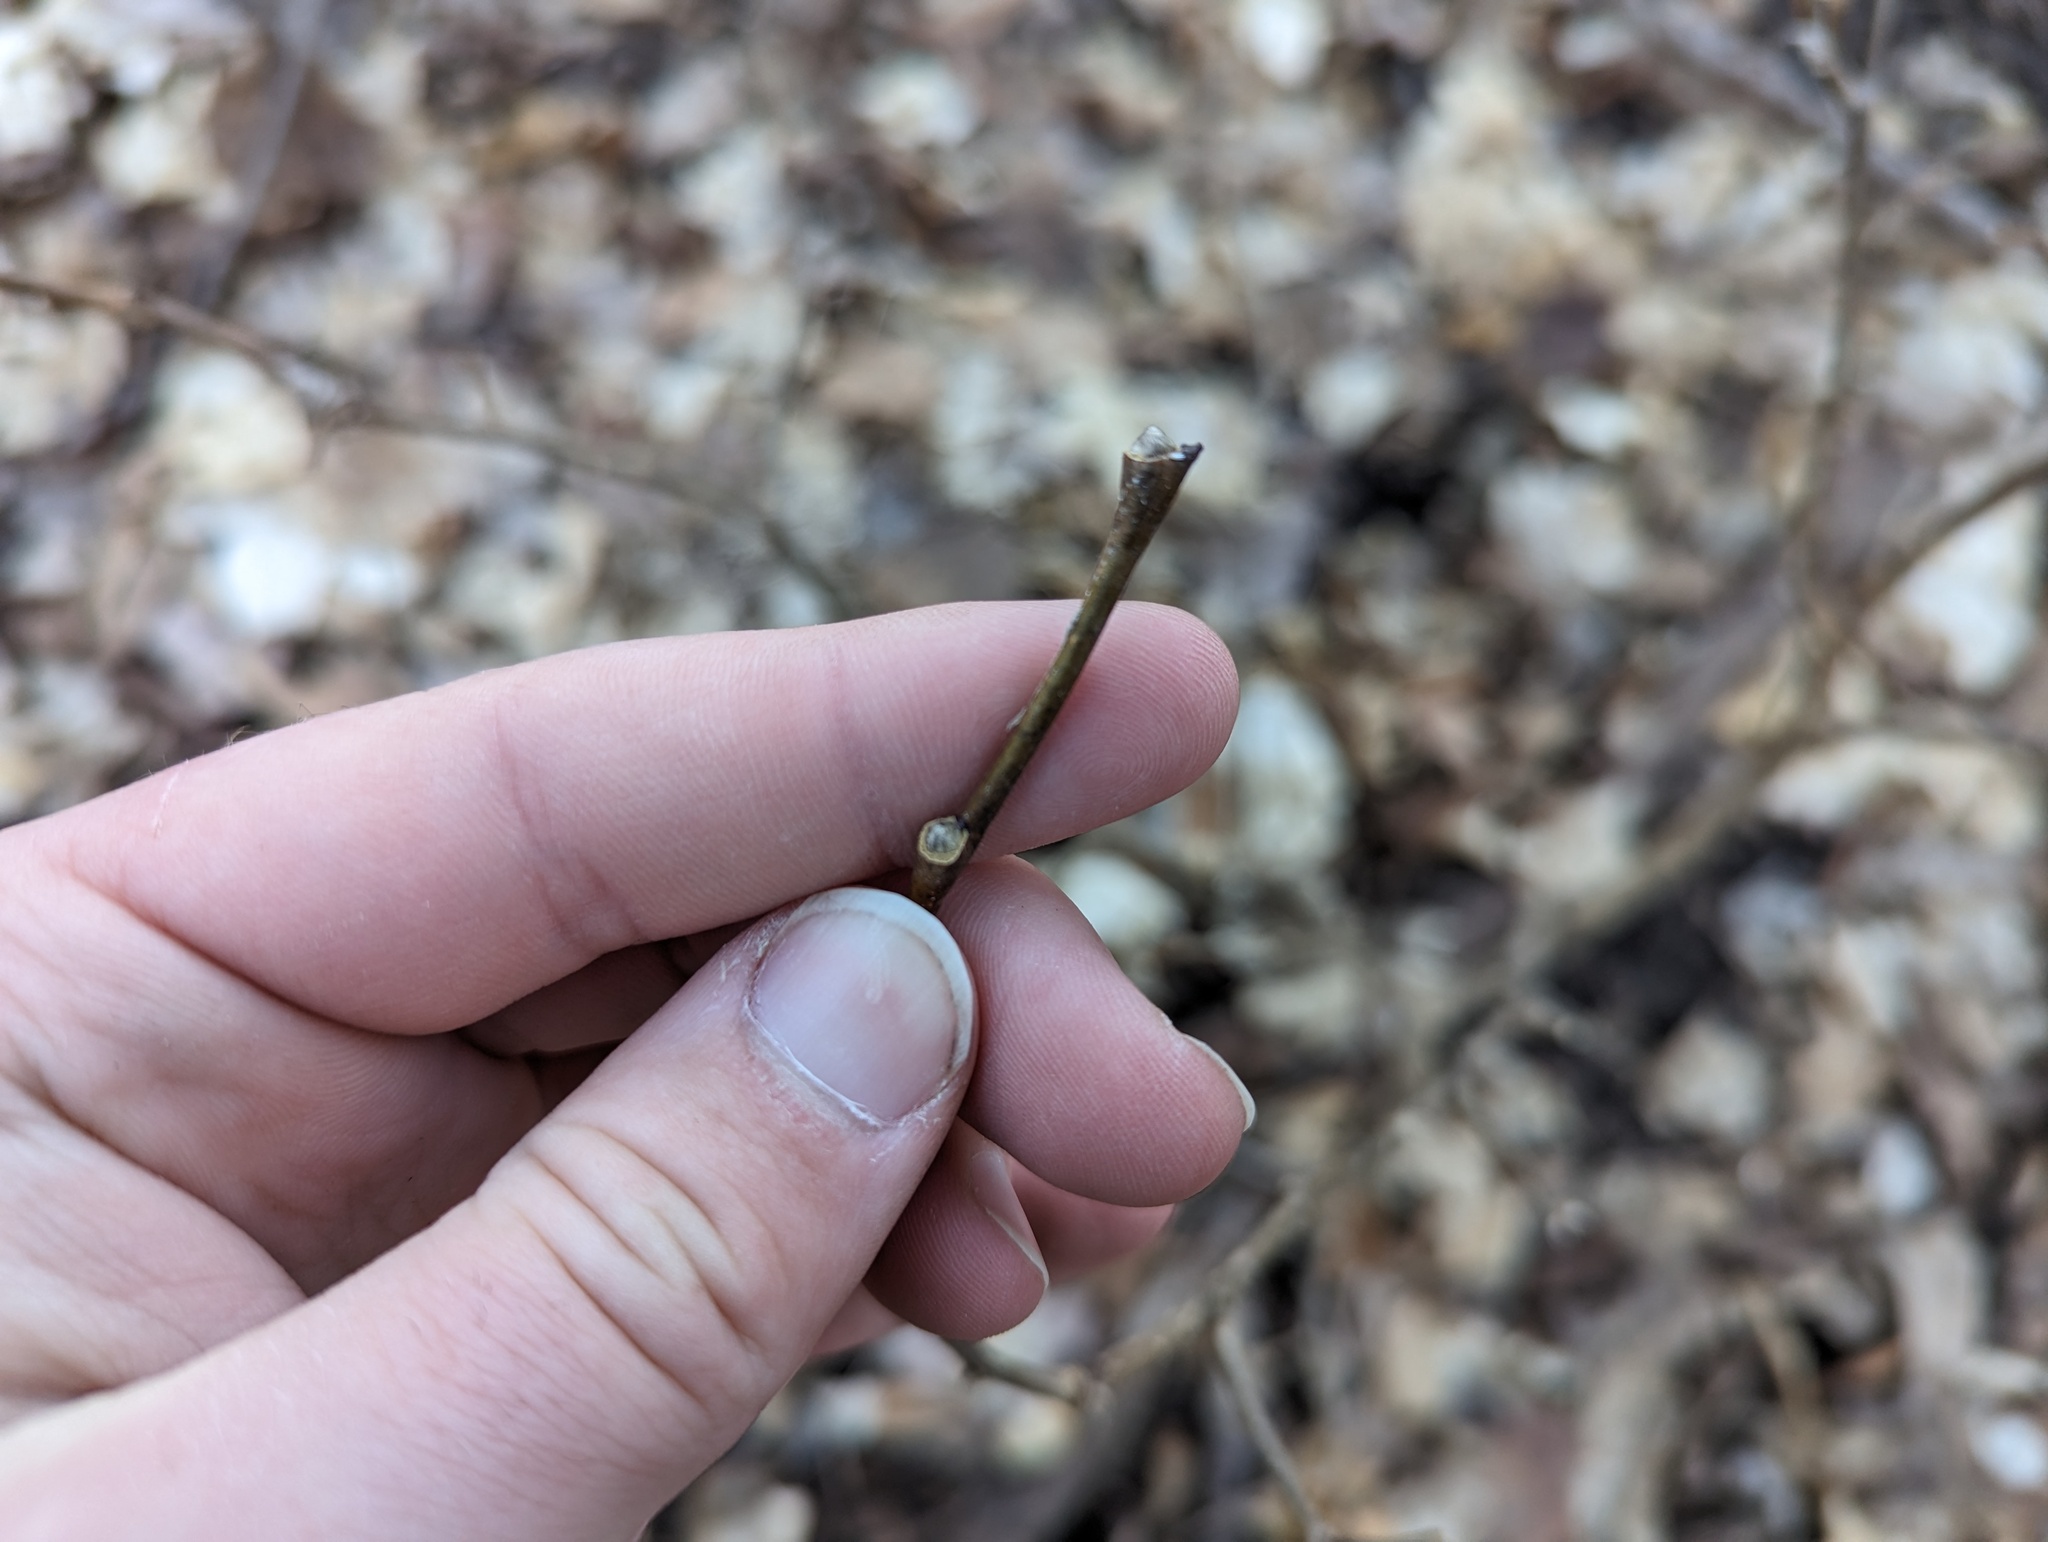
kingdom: Plantae
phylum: Tracheophyta
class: Magnoliopsida
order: Malvales
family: Thymelaeaceae
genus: Dirca
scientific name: Dirca palustris
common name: Leatherwood
